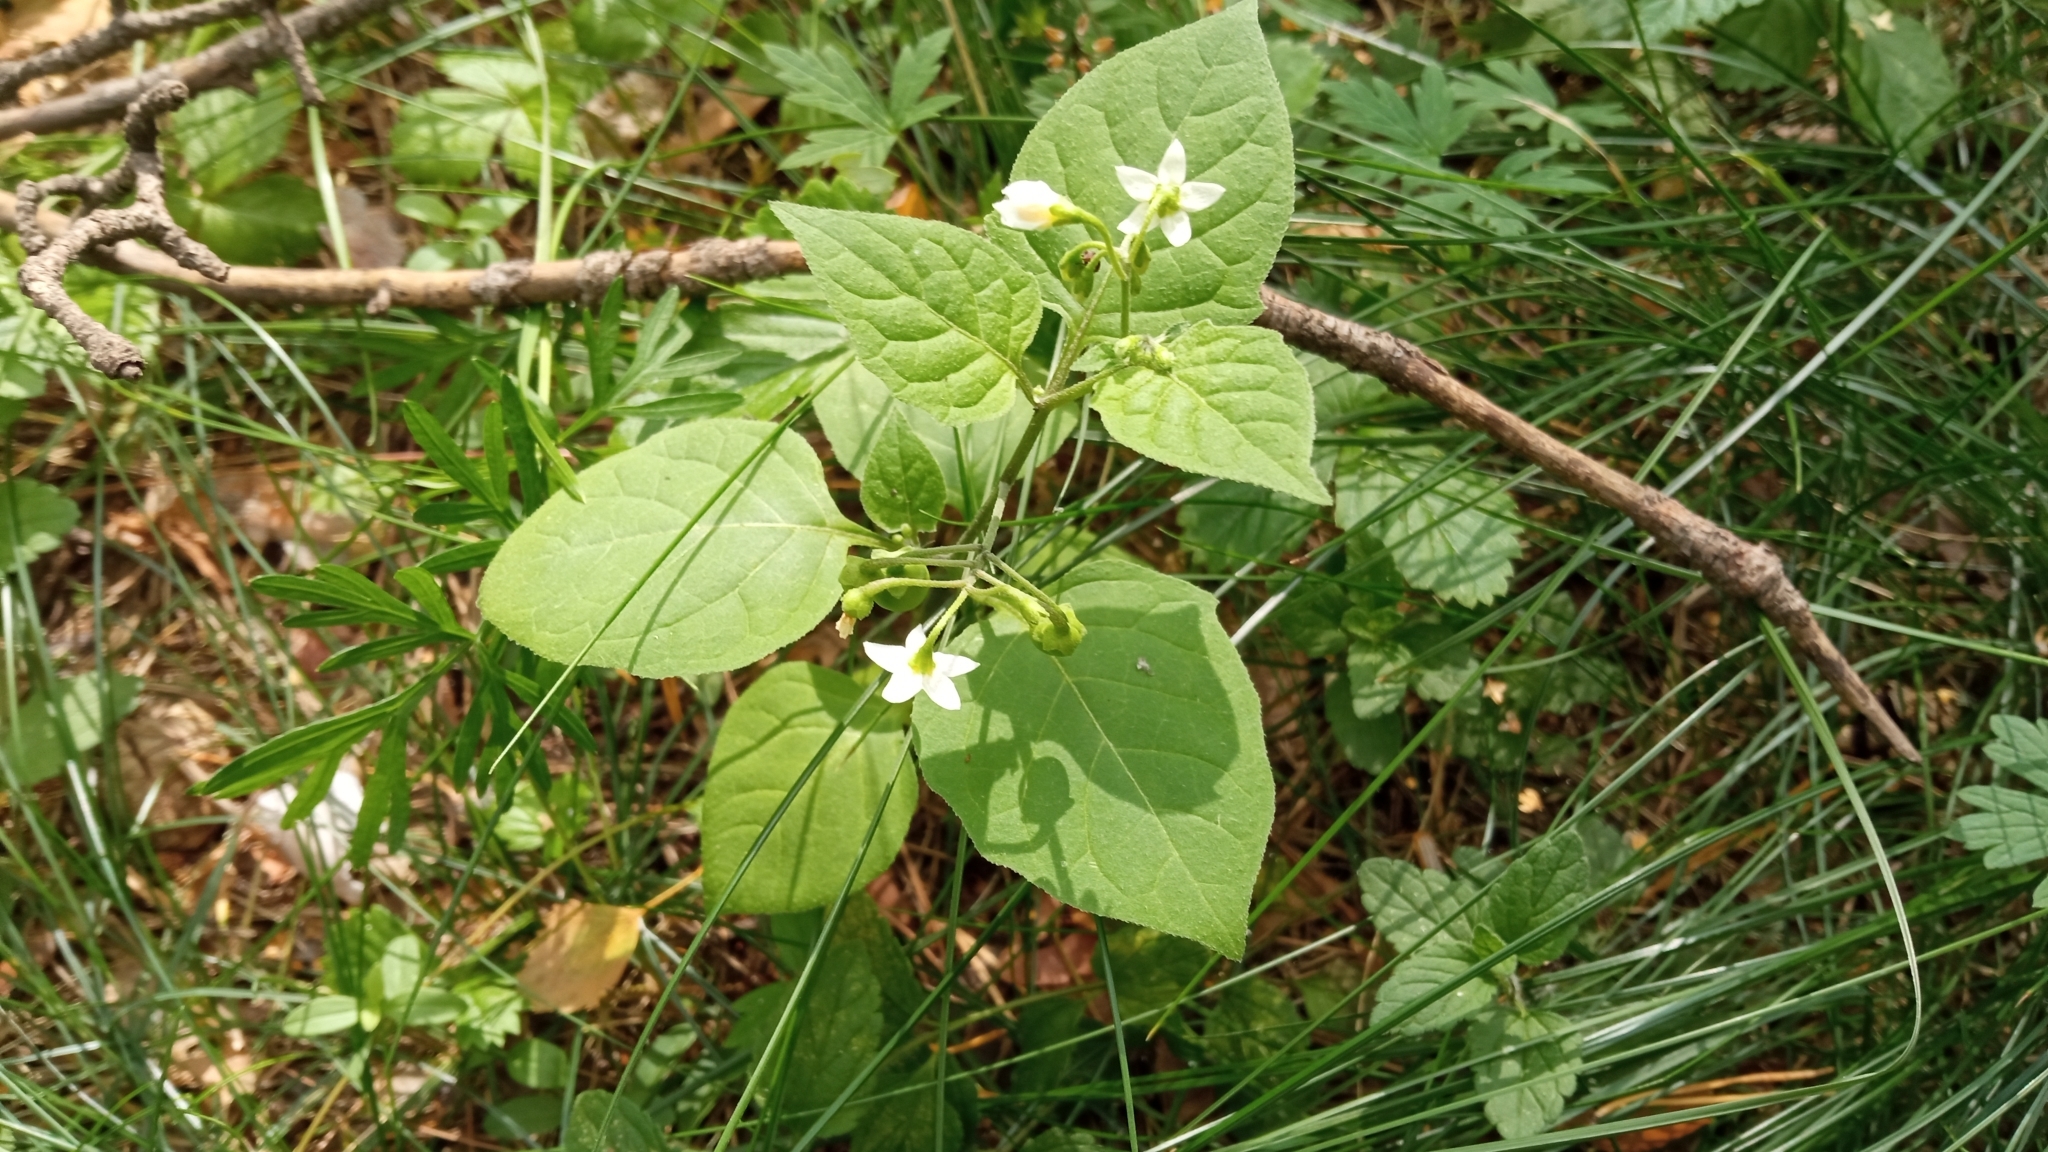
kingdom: Plantae
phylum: Tracheophyta
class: Magnoliopsida
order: Solanales
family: Solanaceae
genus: Solanum
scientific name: Solanum nigrum
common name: Black nightshade
